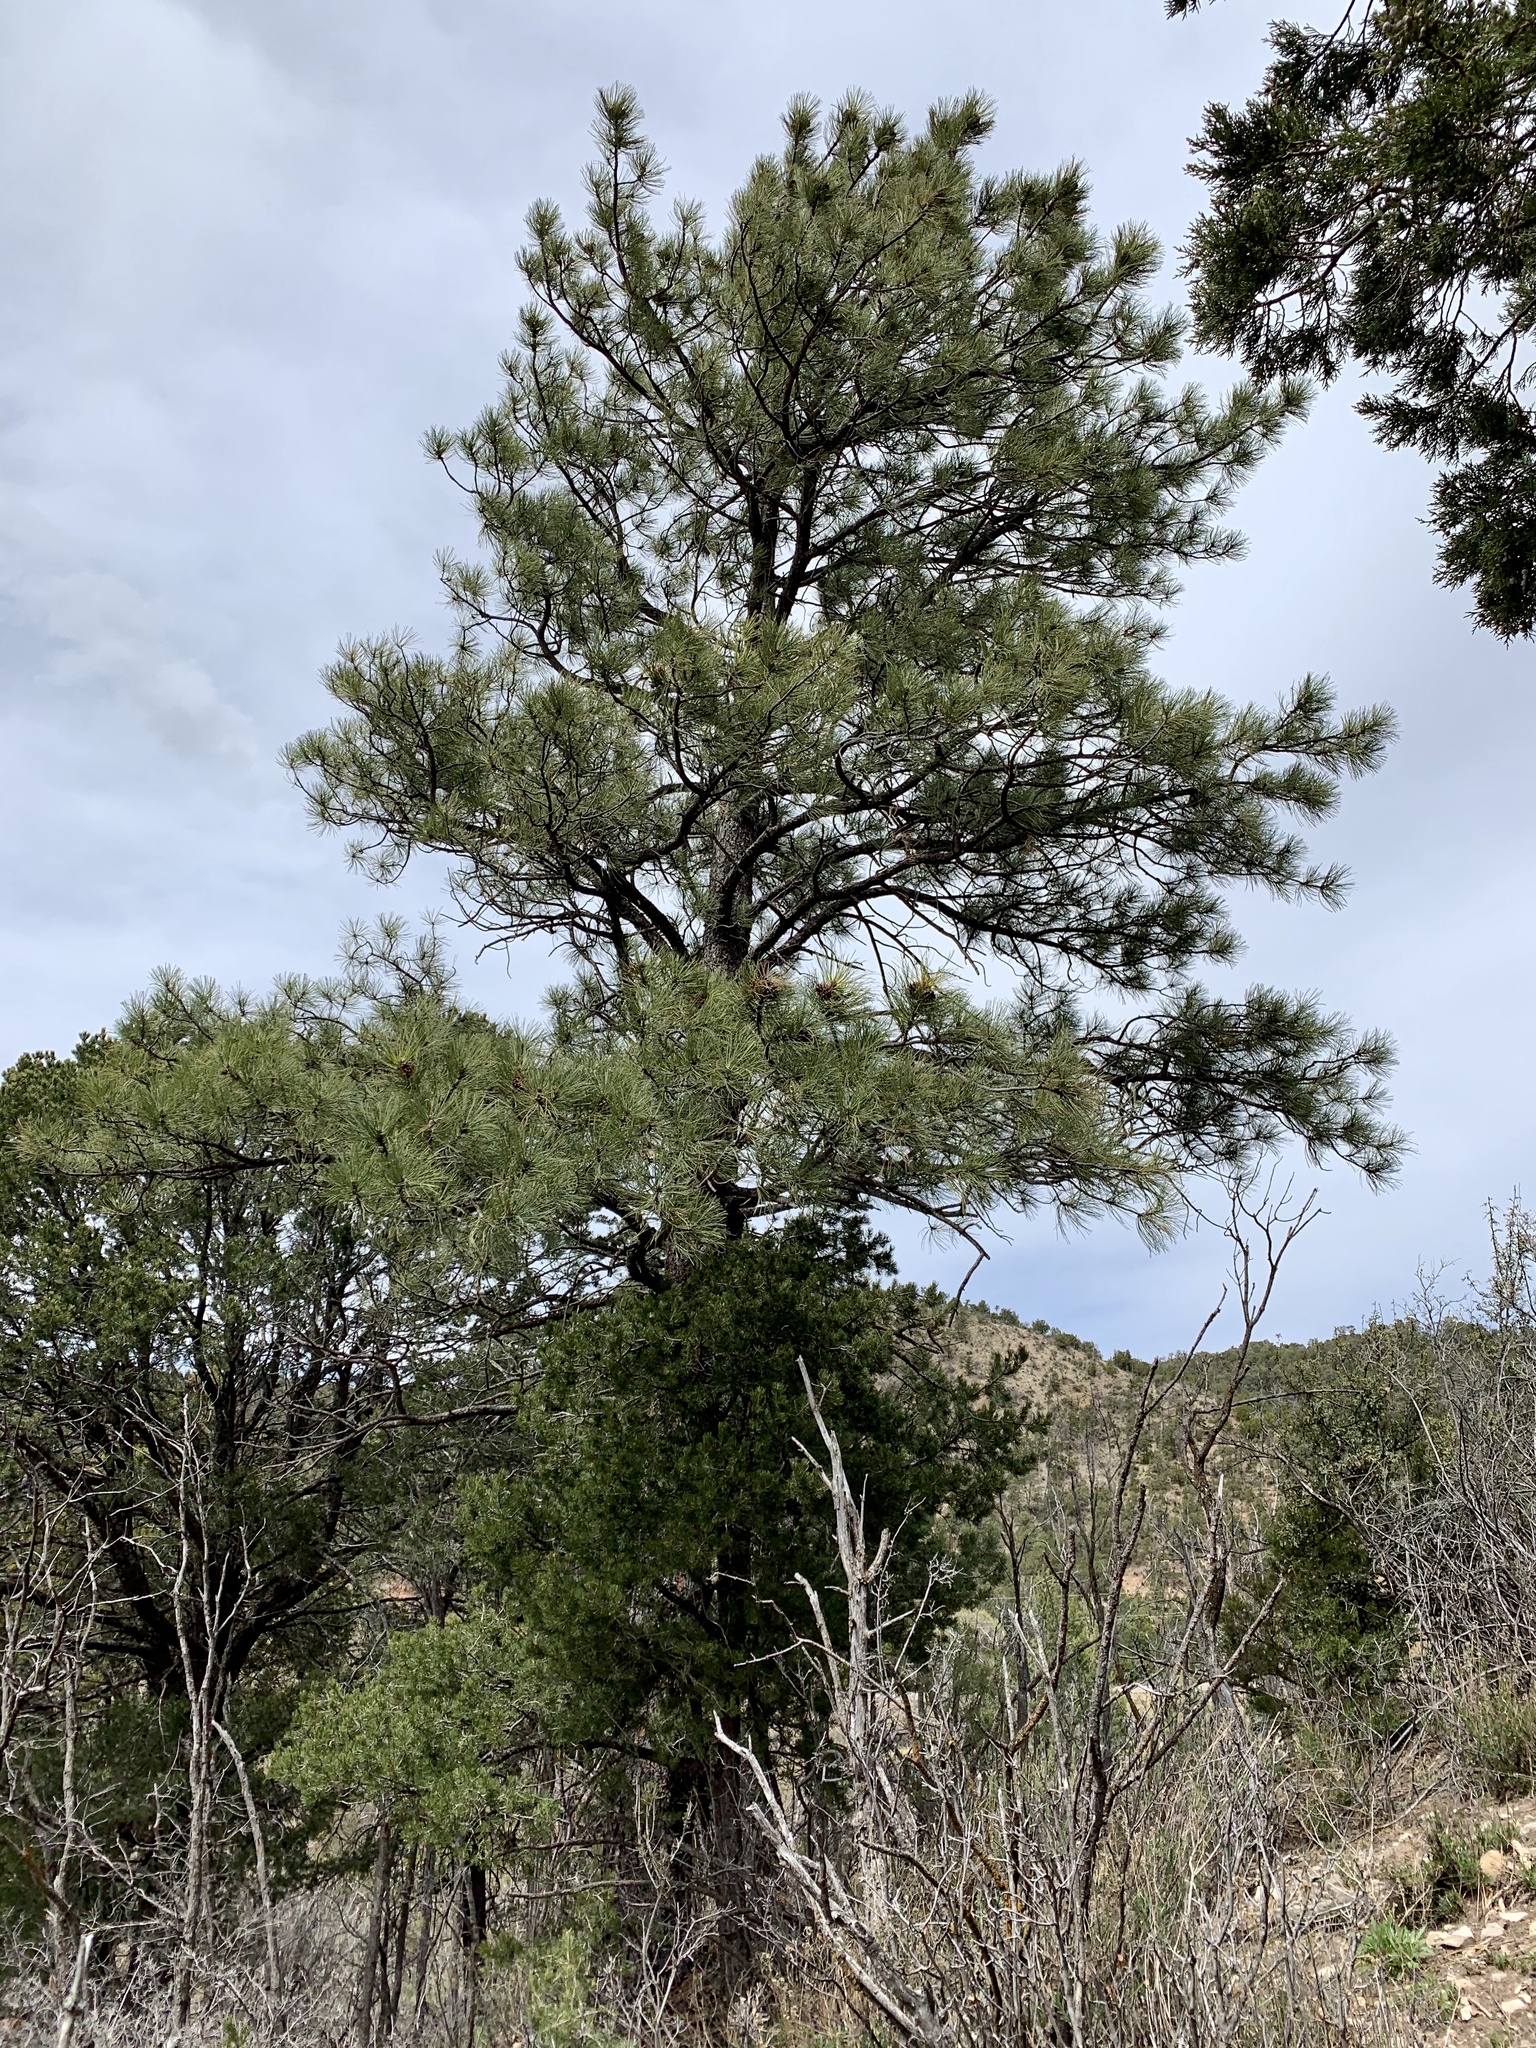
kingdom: Plantae
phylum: Tracheophyta
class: Pinopsida
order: Pinales
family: Pinaceae
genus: Pinus
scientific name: Pinus ponderosa
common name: Western yellow-pine
